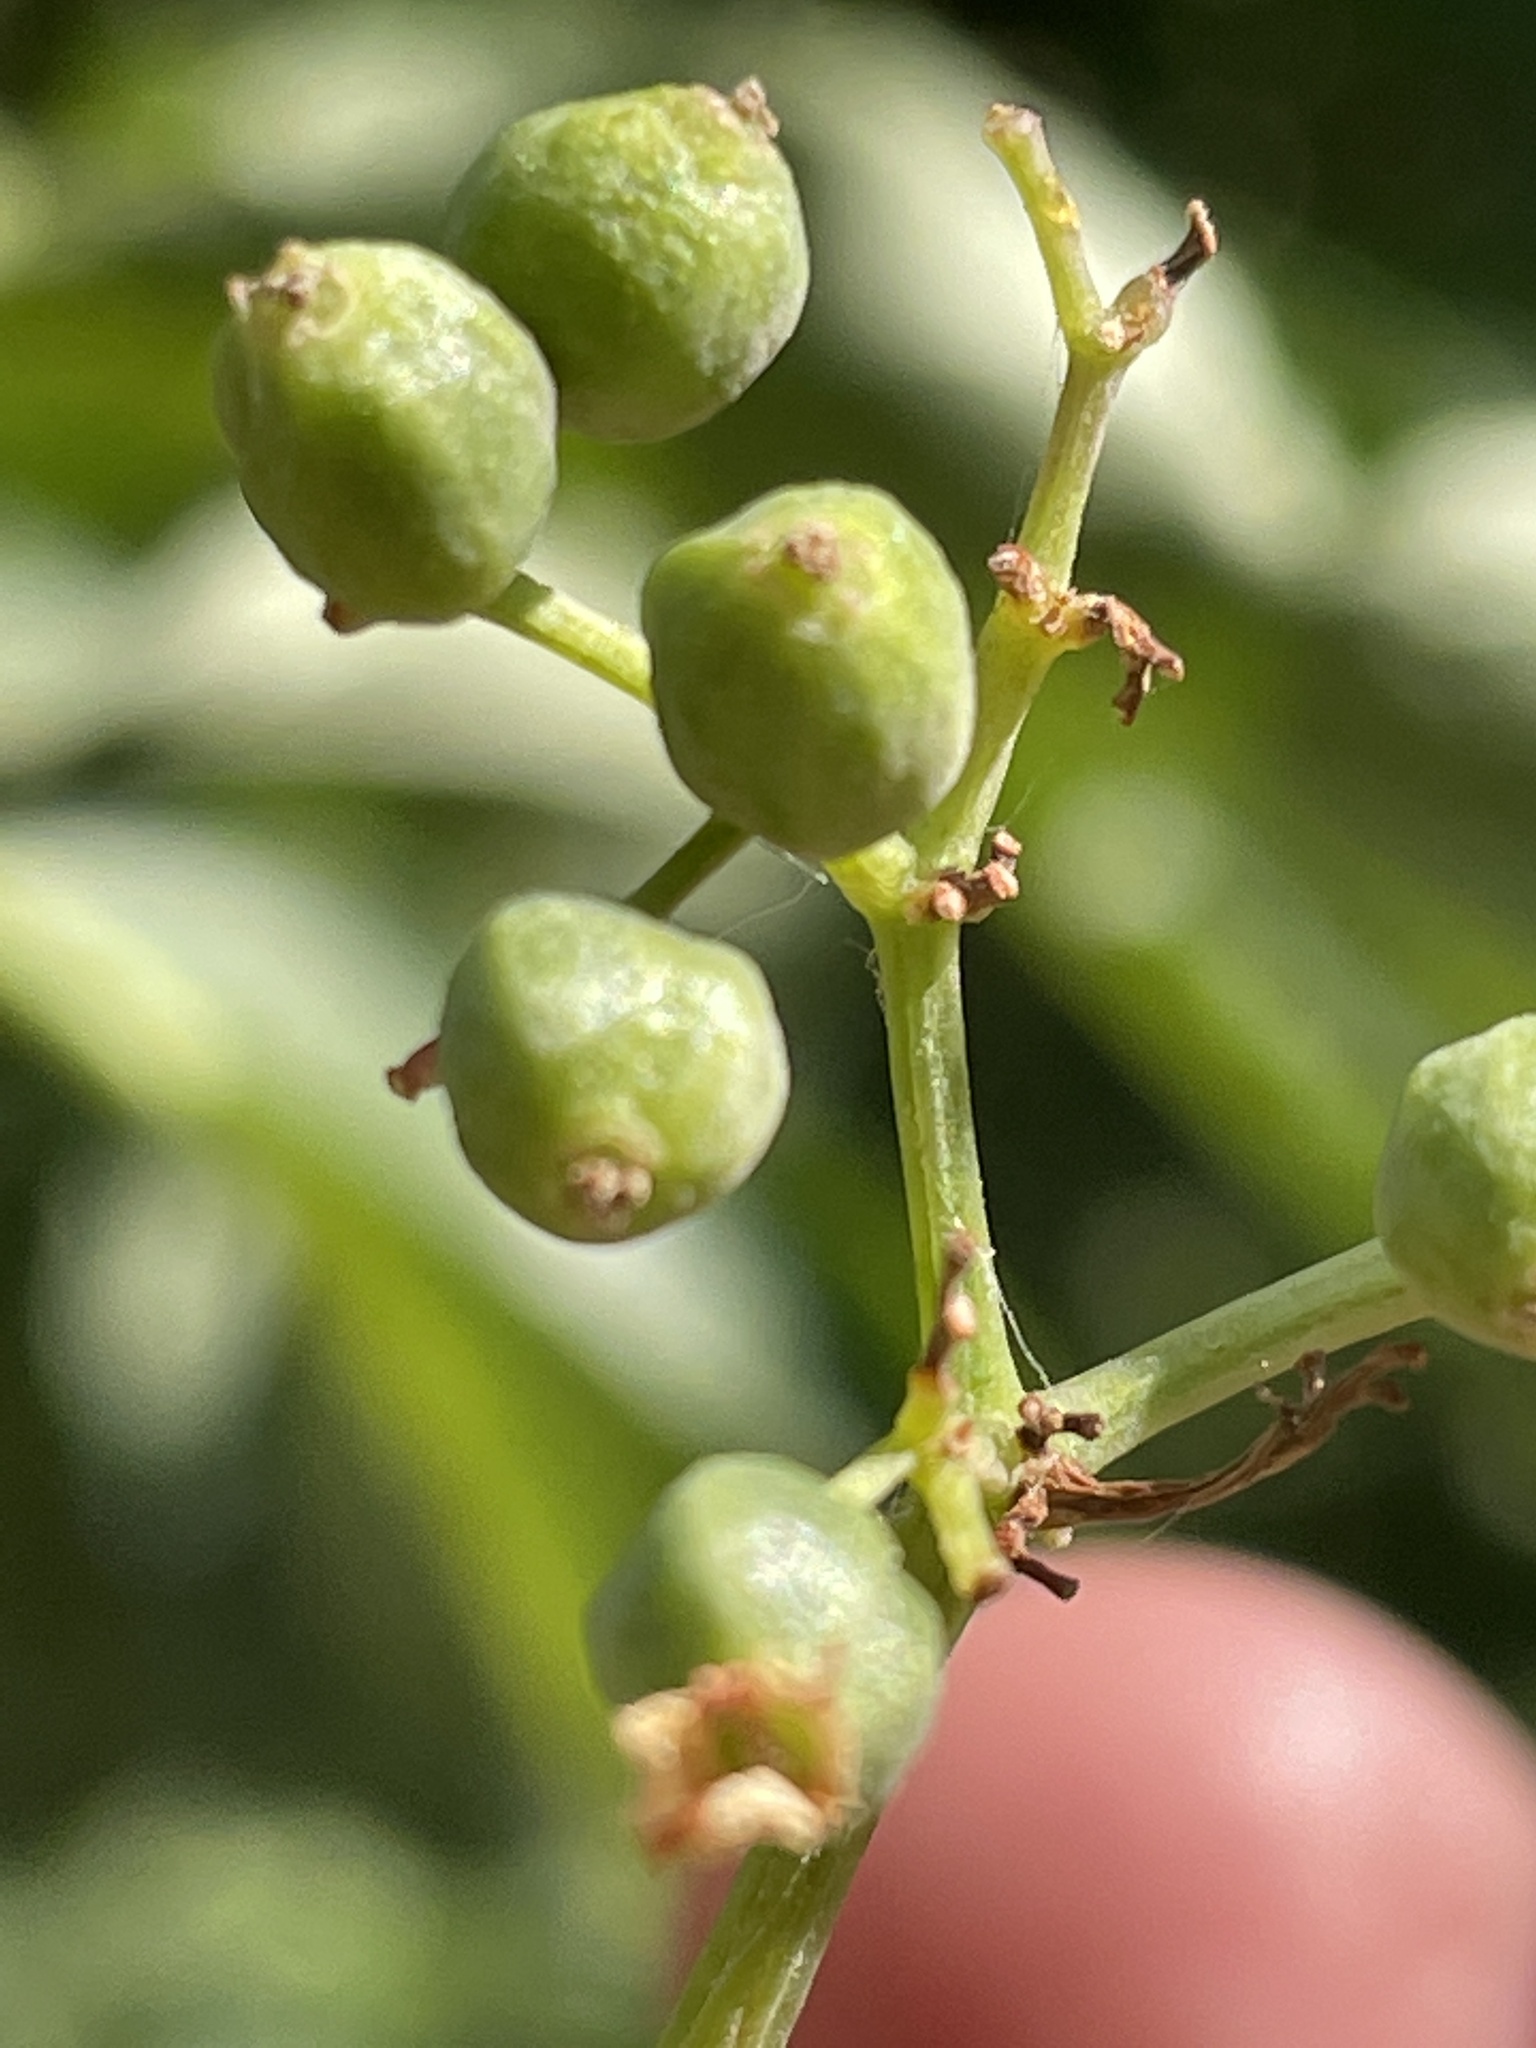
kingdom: Plantae
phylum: Tracheophyta
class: Magnoliopsida
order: Dipsacales
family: Viburnaceae
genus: Sambucus
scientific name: Sambucus cerulea
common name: Blue elder
